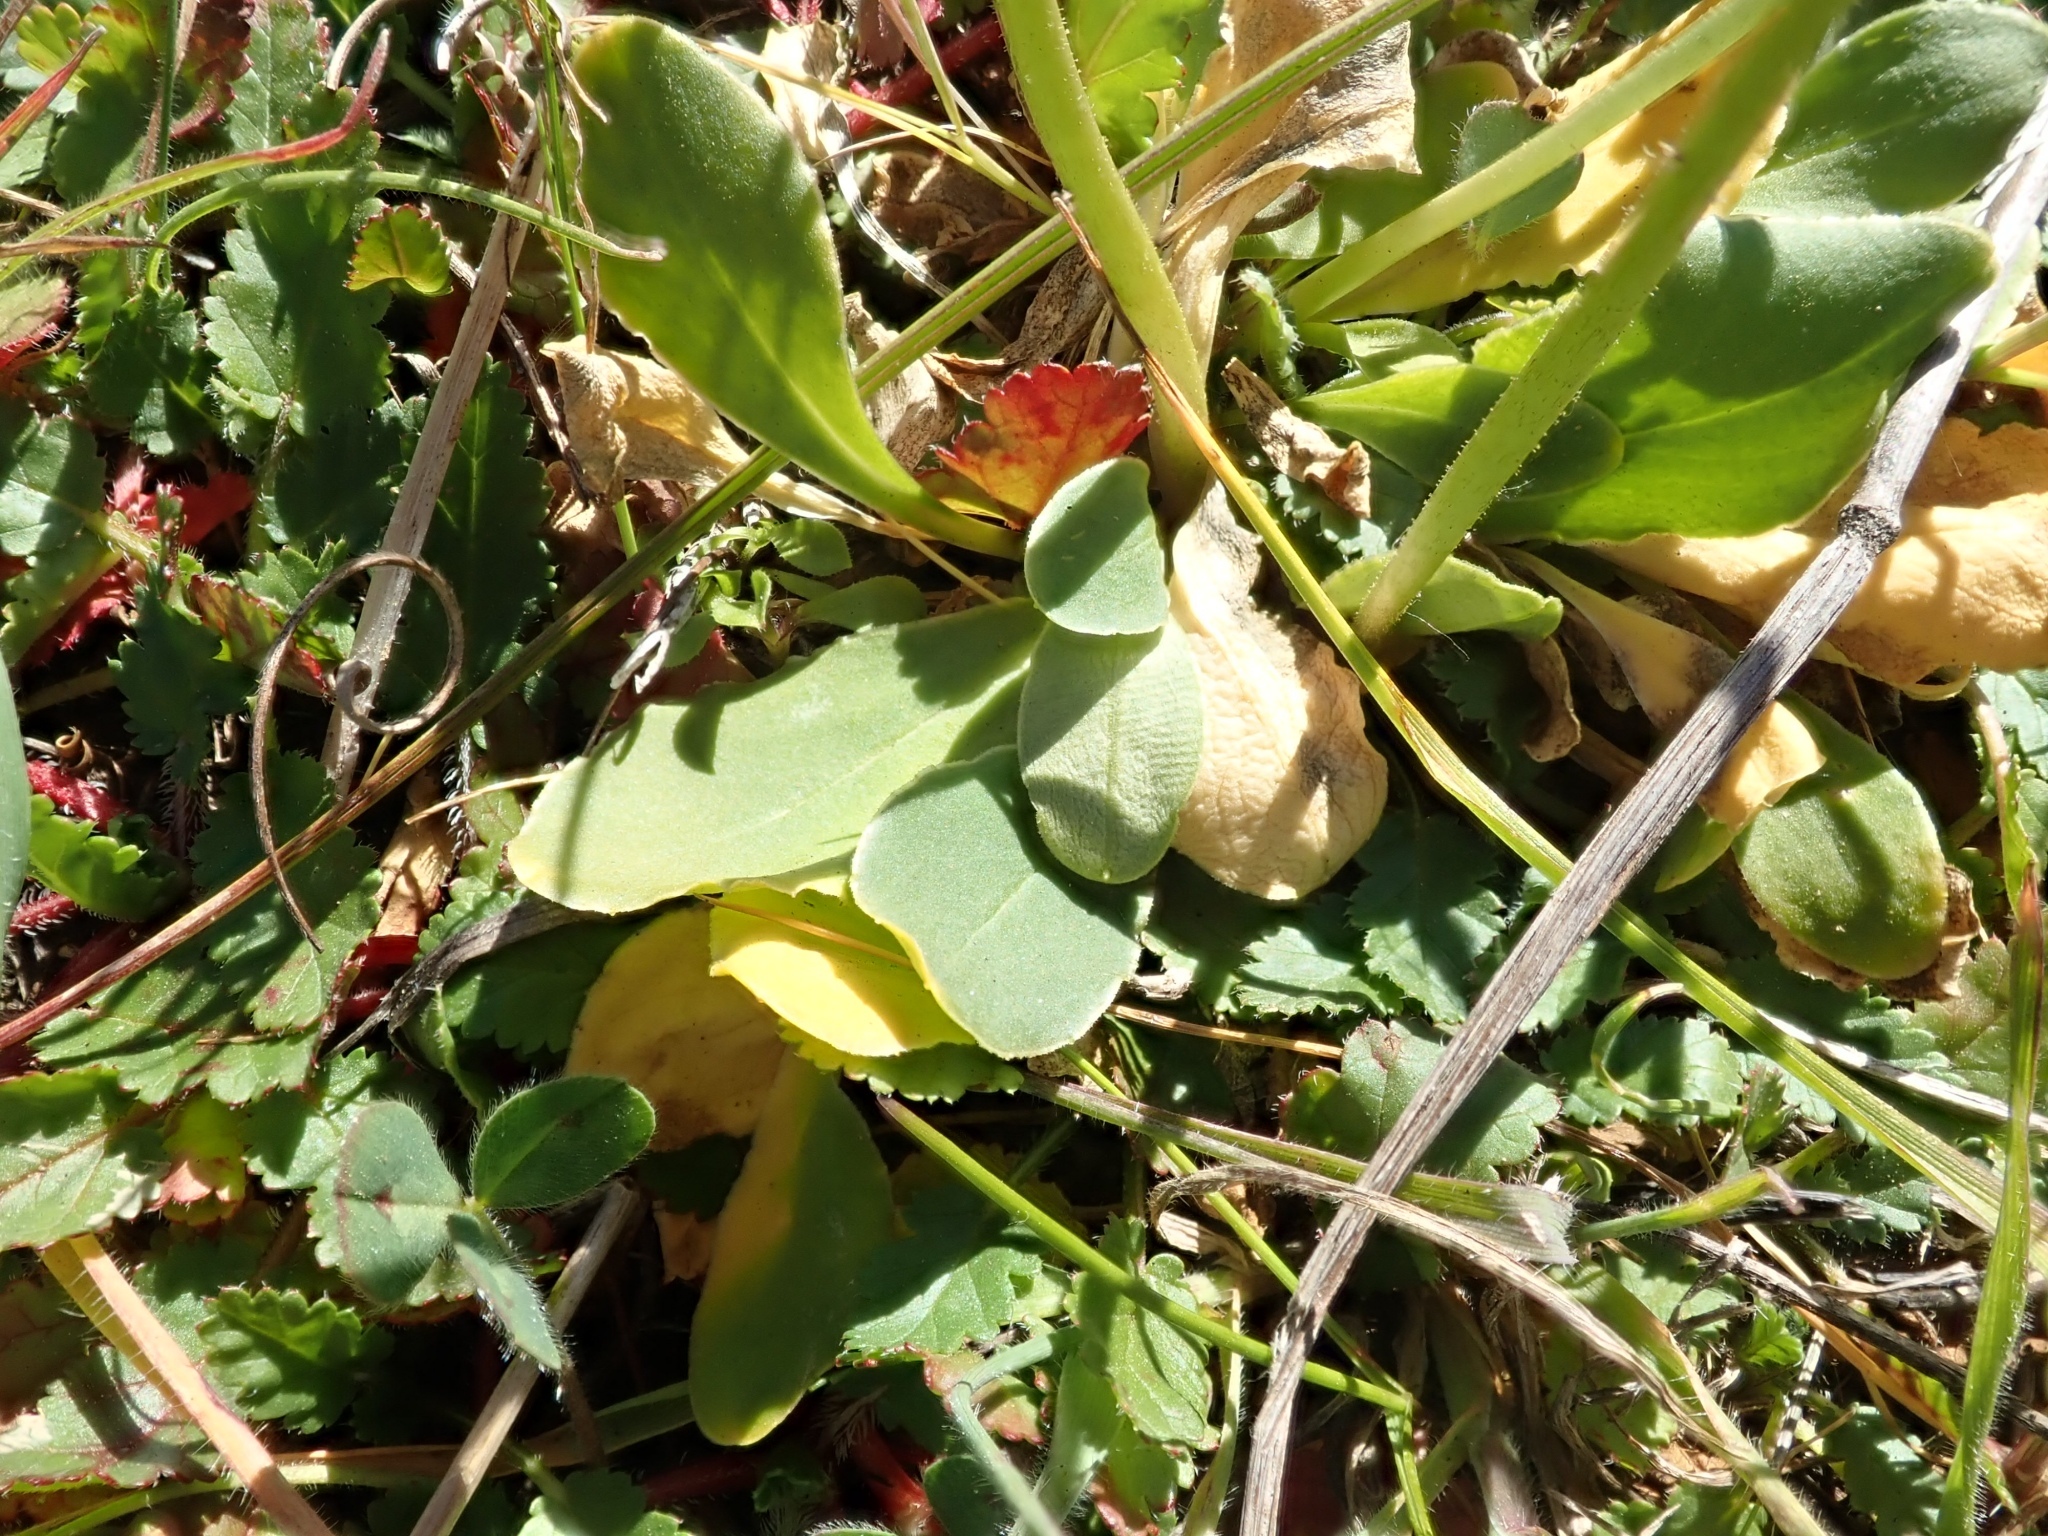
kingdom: Plantae
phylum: Tracheophyta
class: Magnoliopsida
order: Ericales
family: Primulaceae
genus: Dodecatheon
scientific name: Dodecatheon clevelandii
